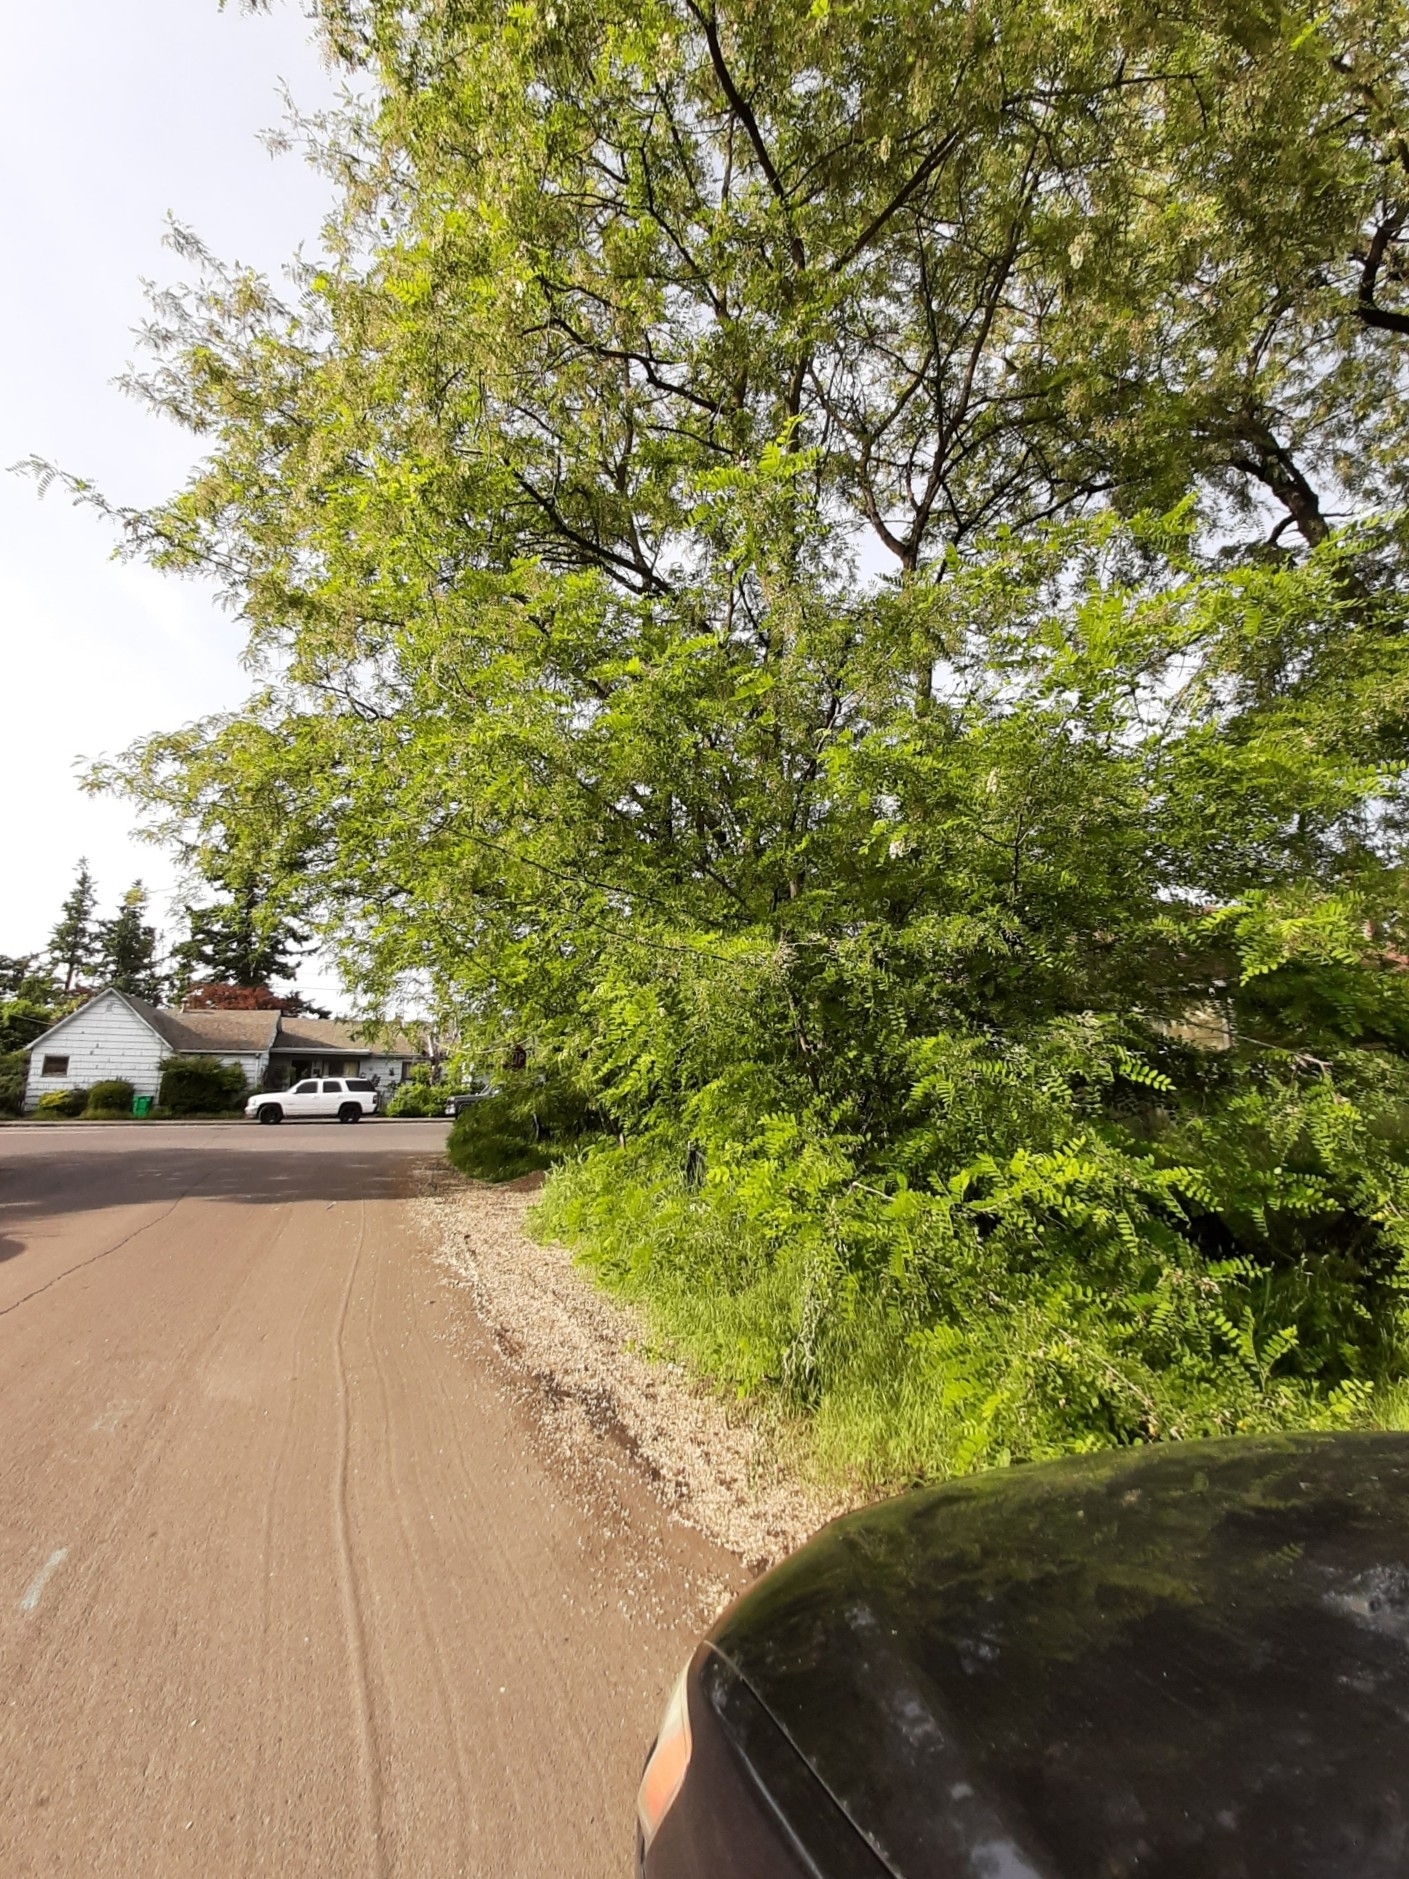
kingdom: Plantae
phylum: Tracheophyta
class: Magnoliopsida
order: Fabales
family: Fabaceae
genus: Robinia
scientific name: Robinia pseudoacacia
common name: Black locust
